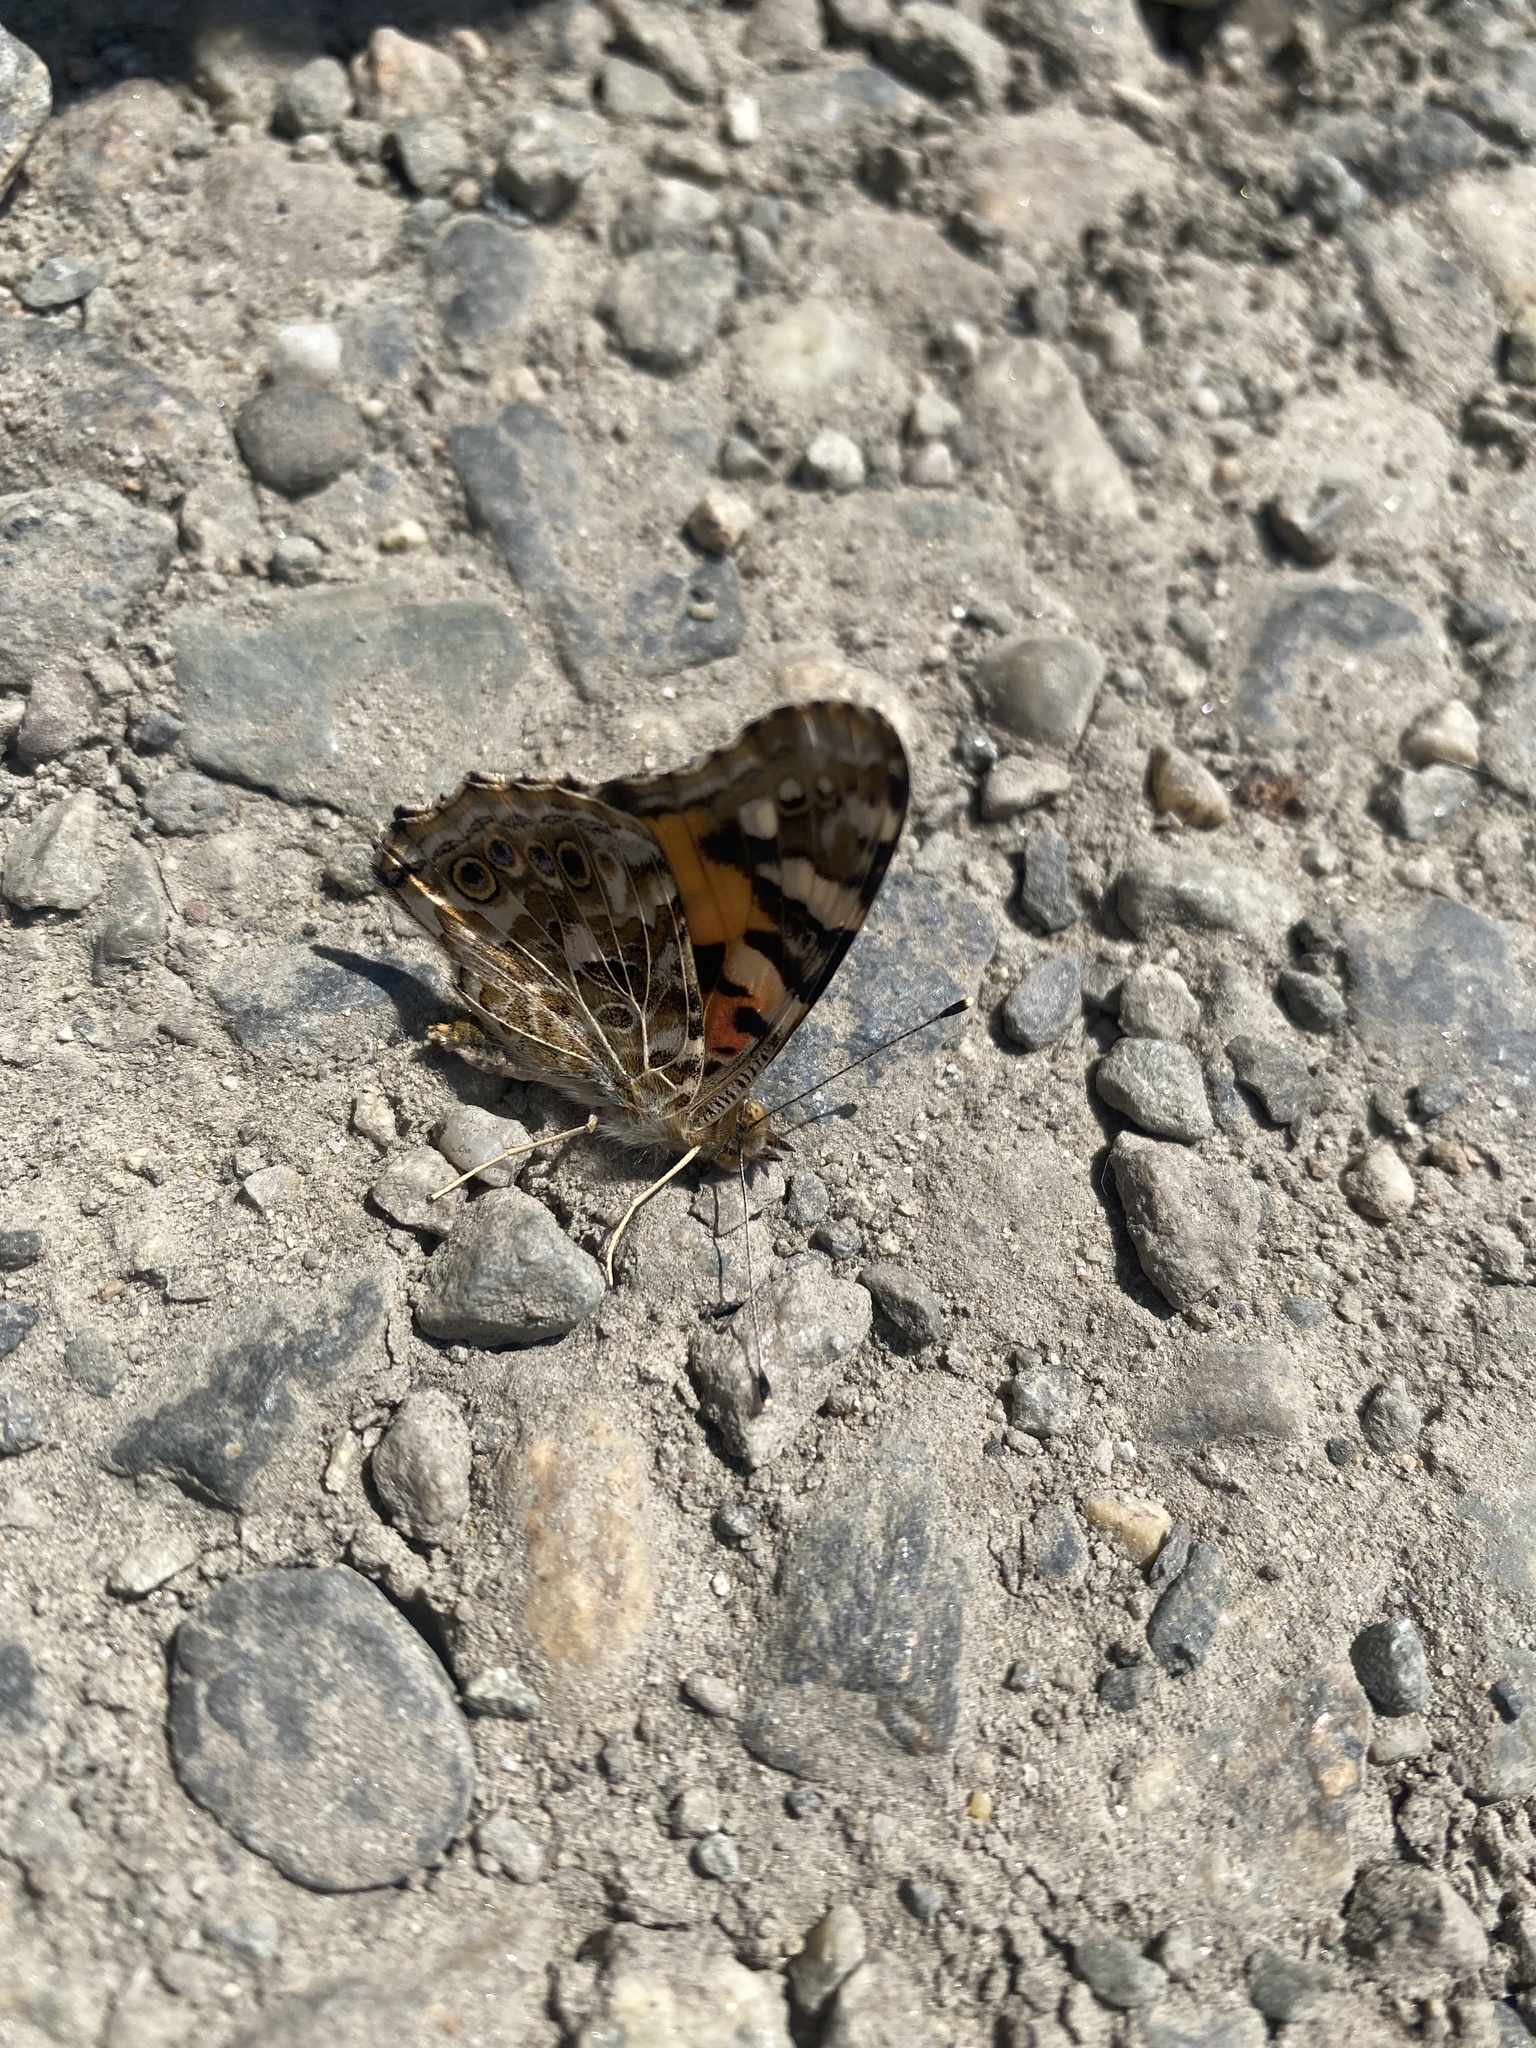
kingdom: Animalia
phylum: Arthropoda
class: Insecta
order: Lepidoptera
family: Nymphalidae
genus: Vanessa
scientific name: Vanessa cardui
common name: Painted lady
